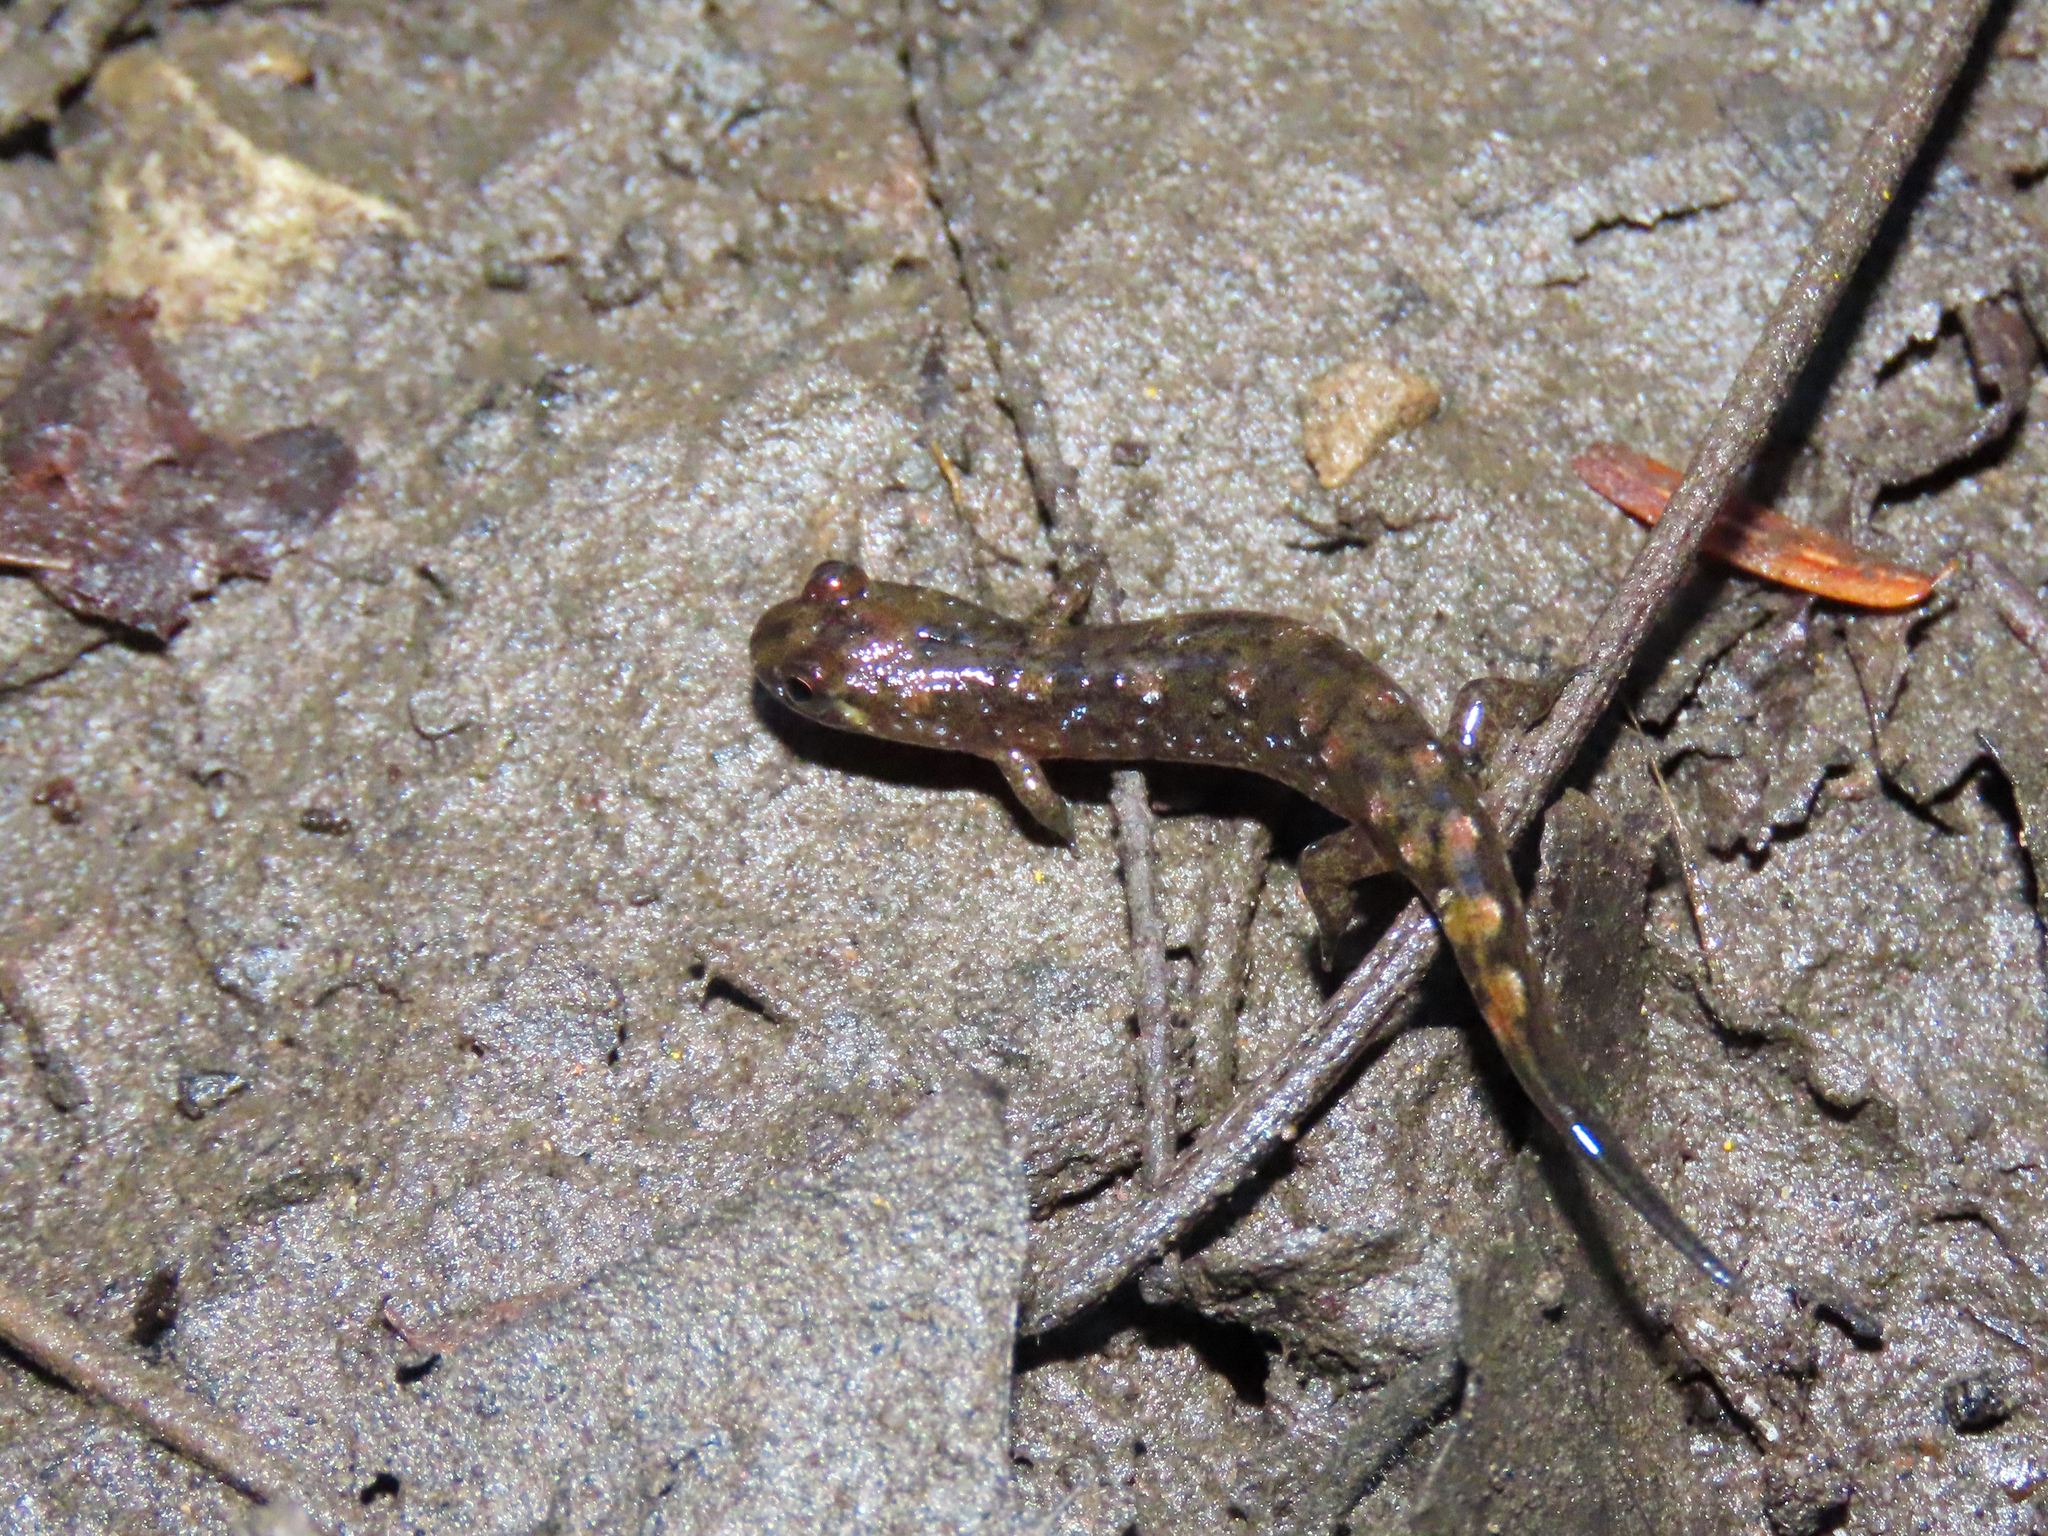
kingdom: Animalia
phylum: Chordata
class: Amphibia
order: Caudata
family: Plethodontidae
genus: Desmognathus
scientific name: Desmognathus monticola
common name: Seal salamander
